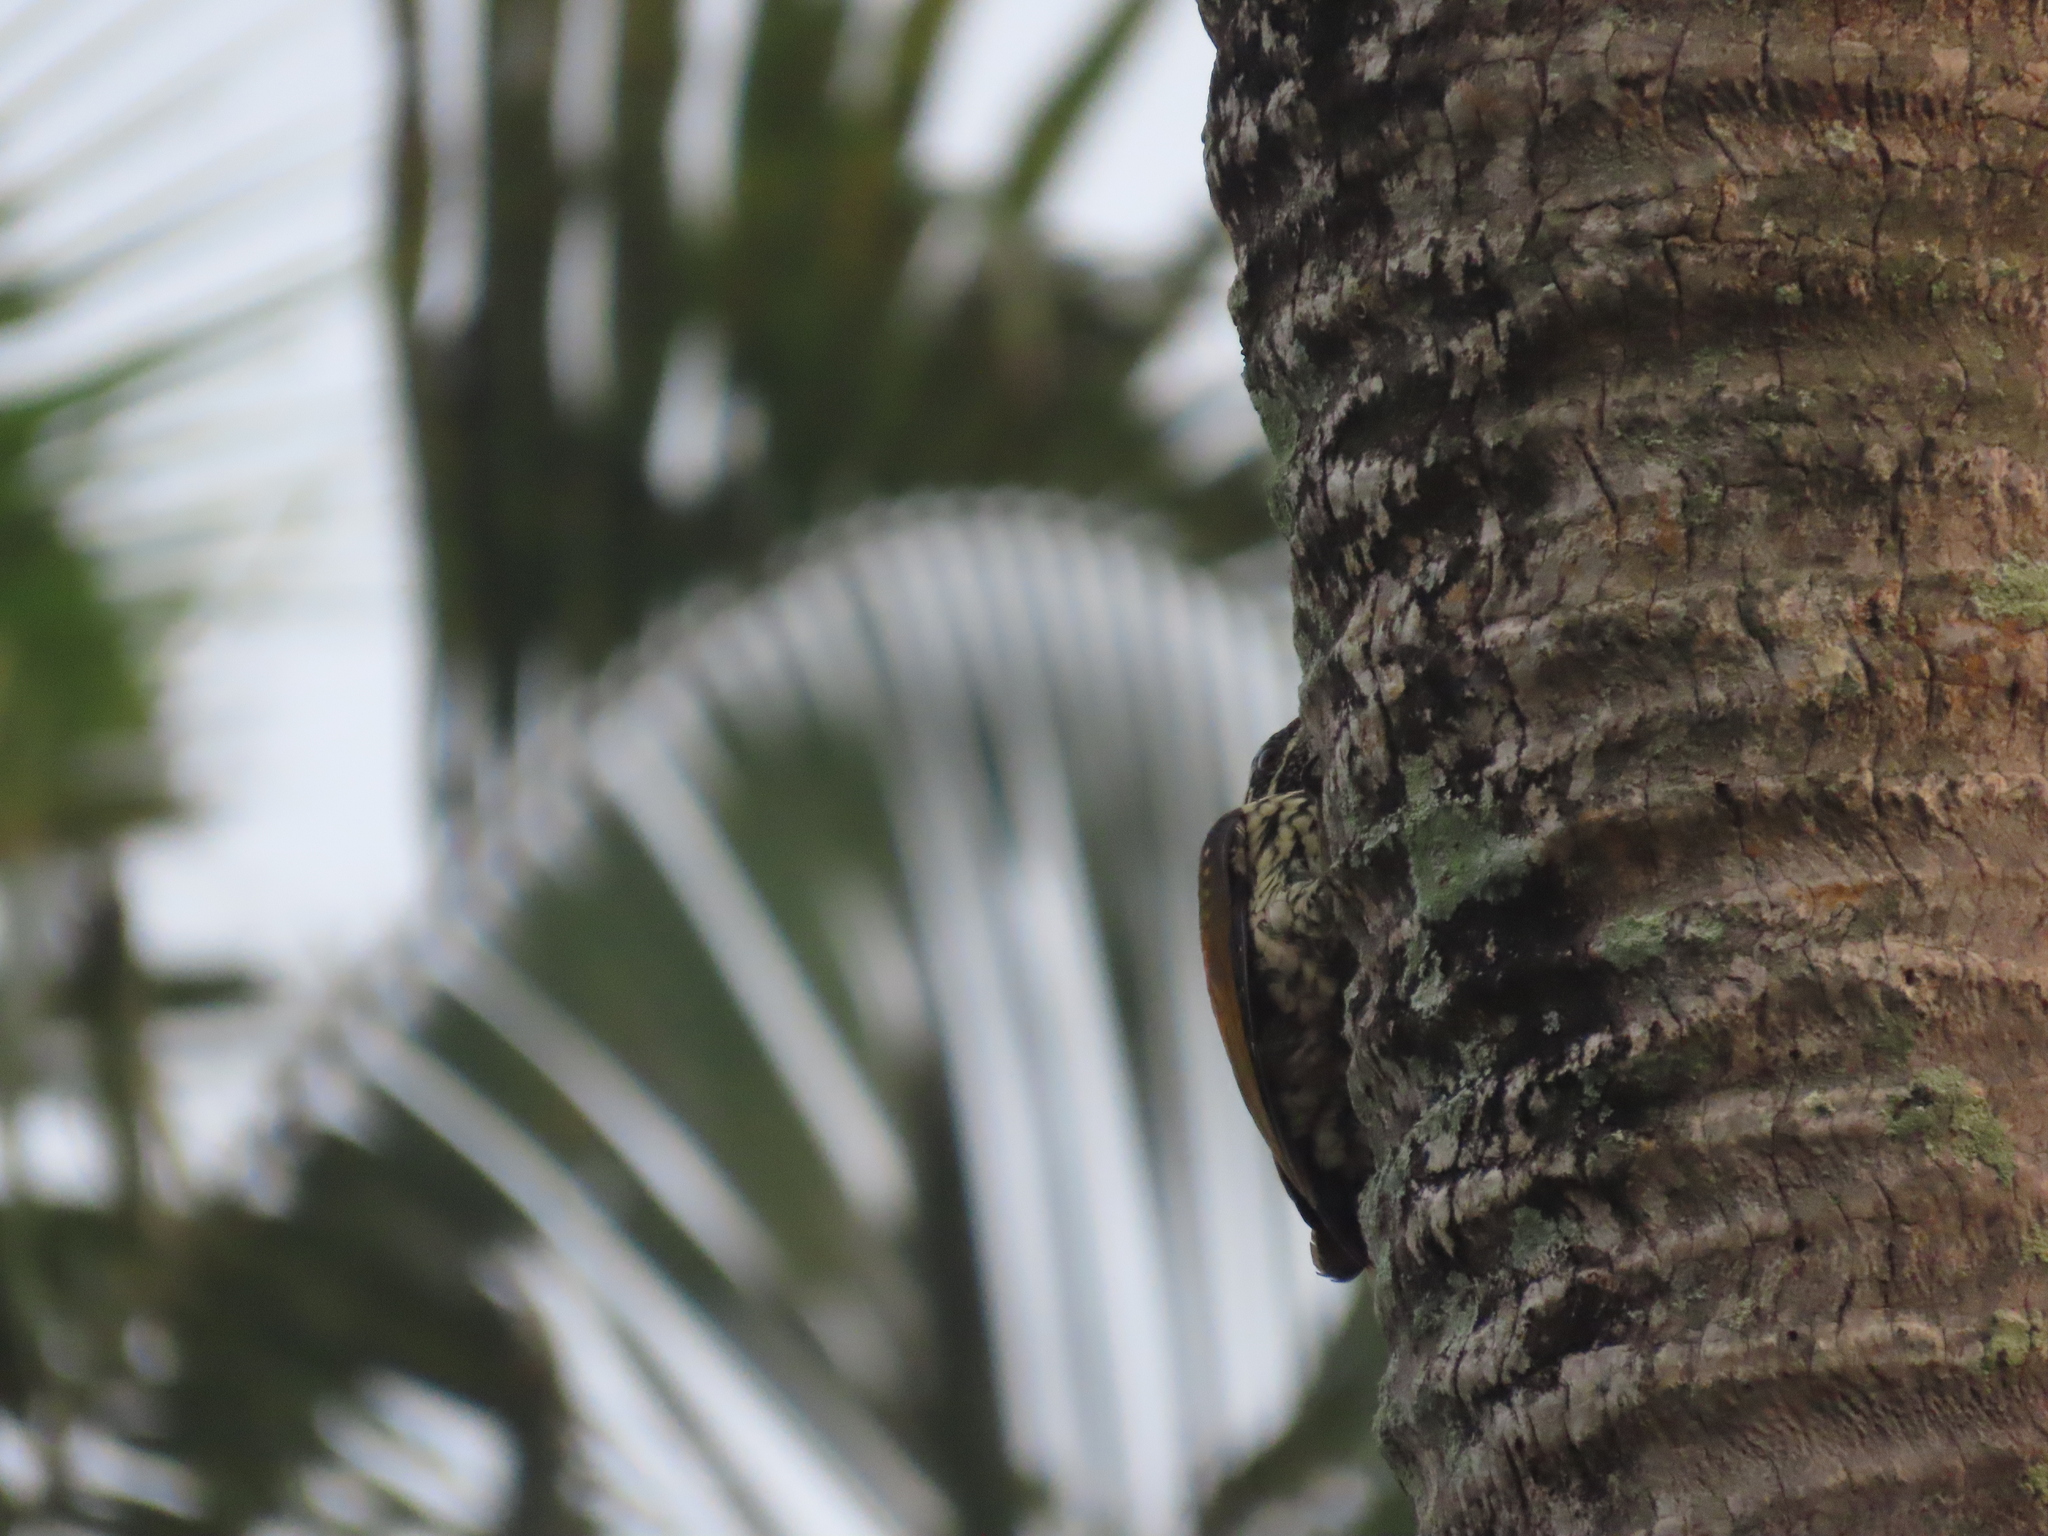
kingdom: Animalia
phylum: Chordata
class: Aves
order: Piciformes
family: Picidae
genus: Dinopium
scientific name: Dinopium benghalense
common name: Black-rumped flameback
